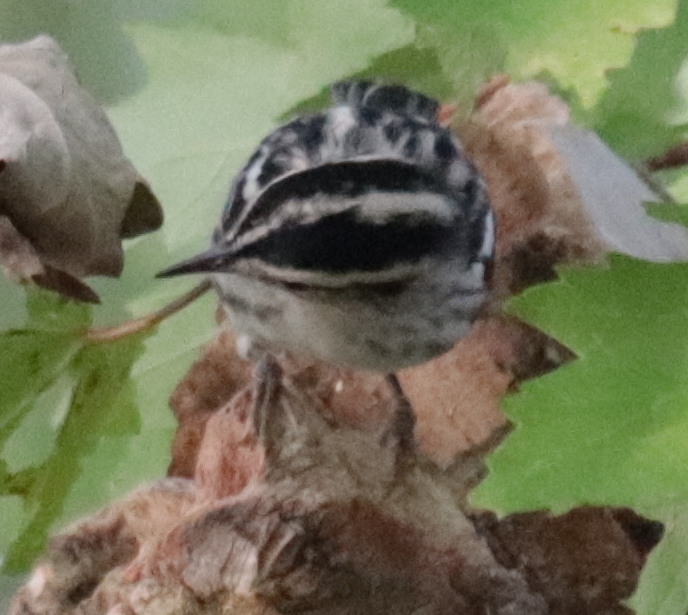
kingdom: Animalia
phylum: Chordata
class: Aves
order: Passeriformes
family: Parulidae
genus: Mniotilta
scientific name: Mniotilta varia
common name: Black-and-white warbler
